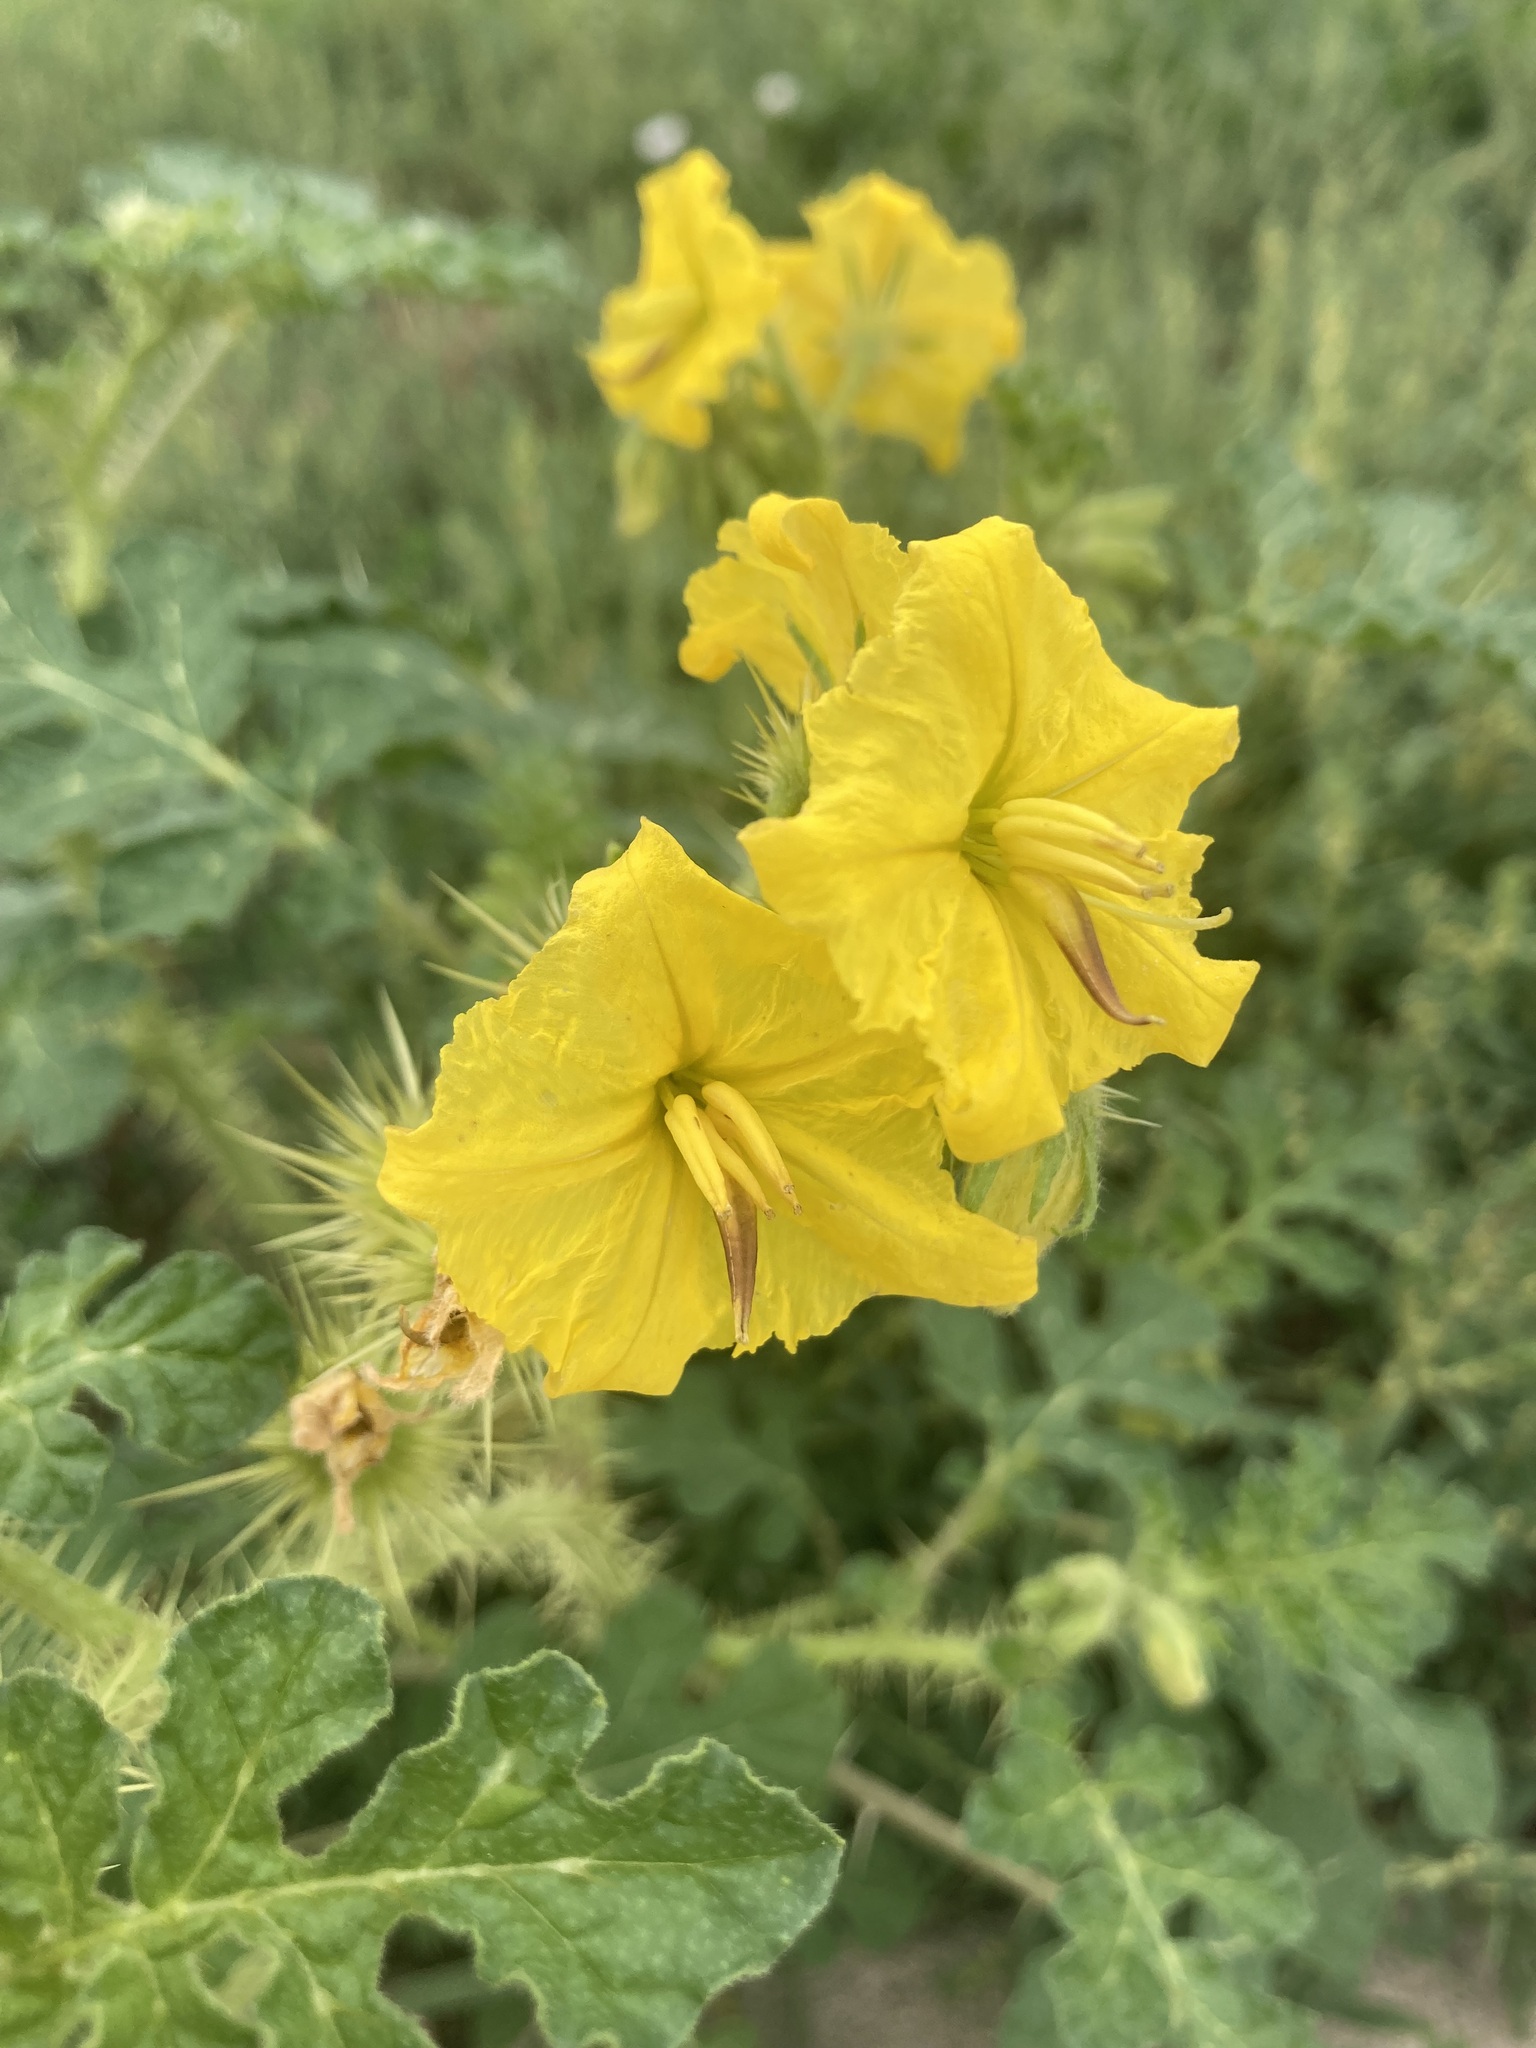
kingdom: Plantae
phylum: Tracheophyta
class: Magnoliopsida
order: Solanales
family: Solanaceae
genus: Solanum
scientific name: Solanum angustifolium
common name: Buffalobur nightshade
